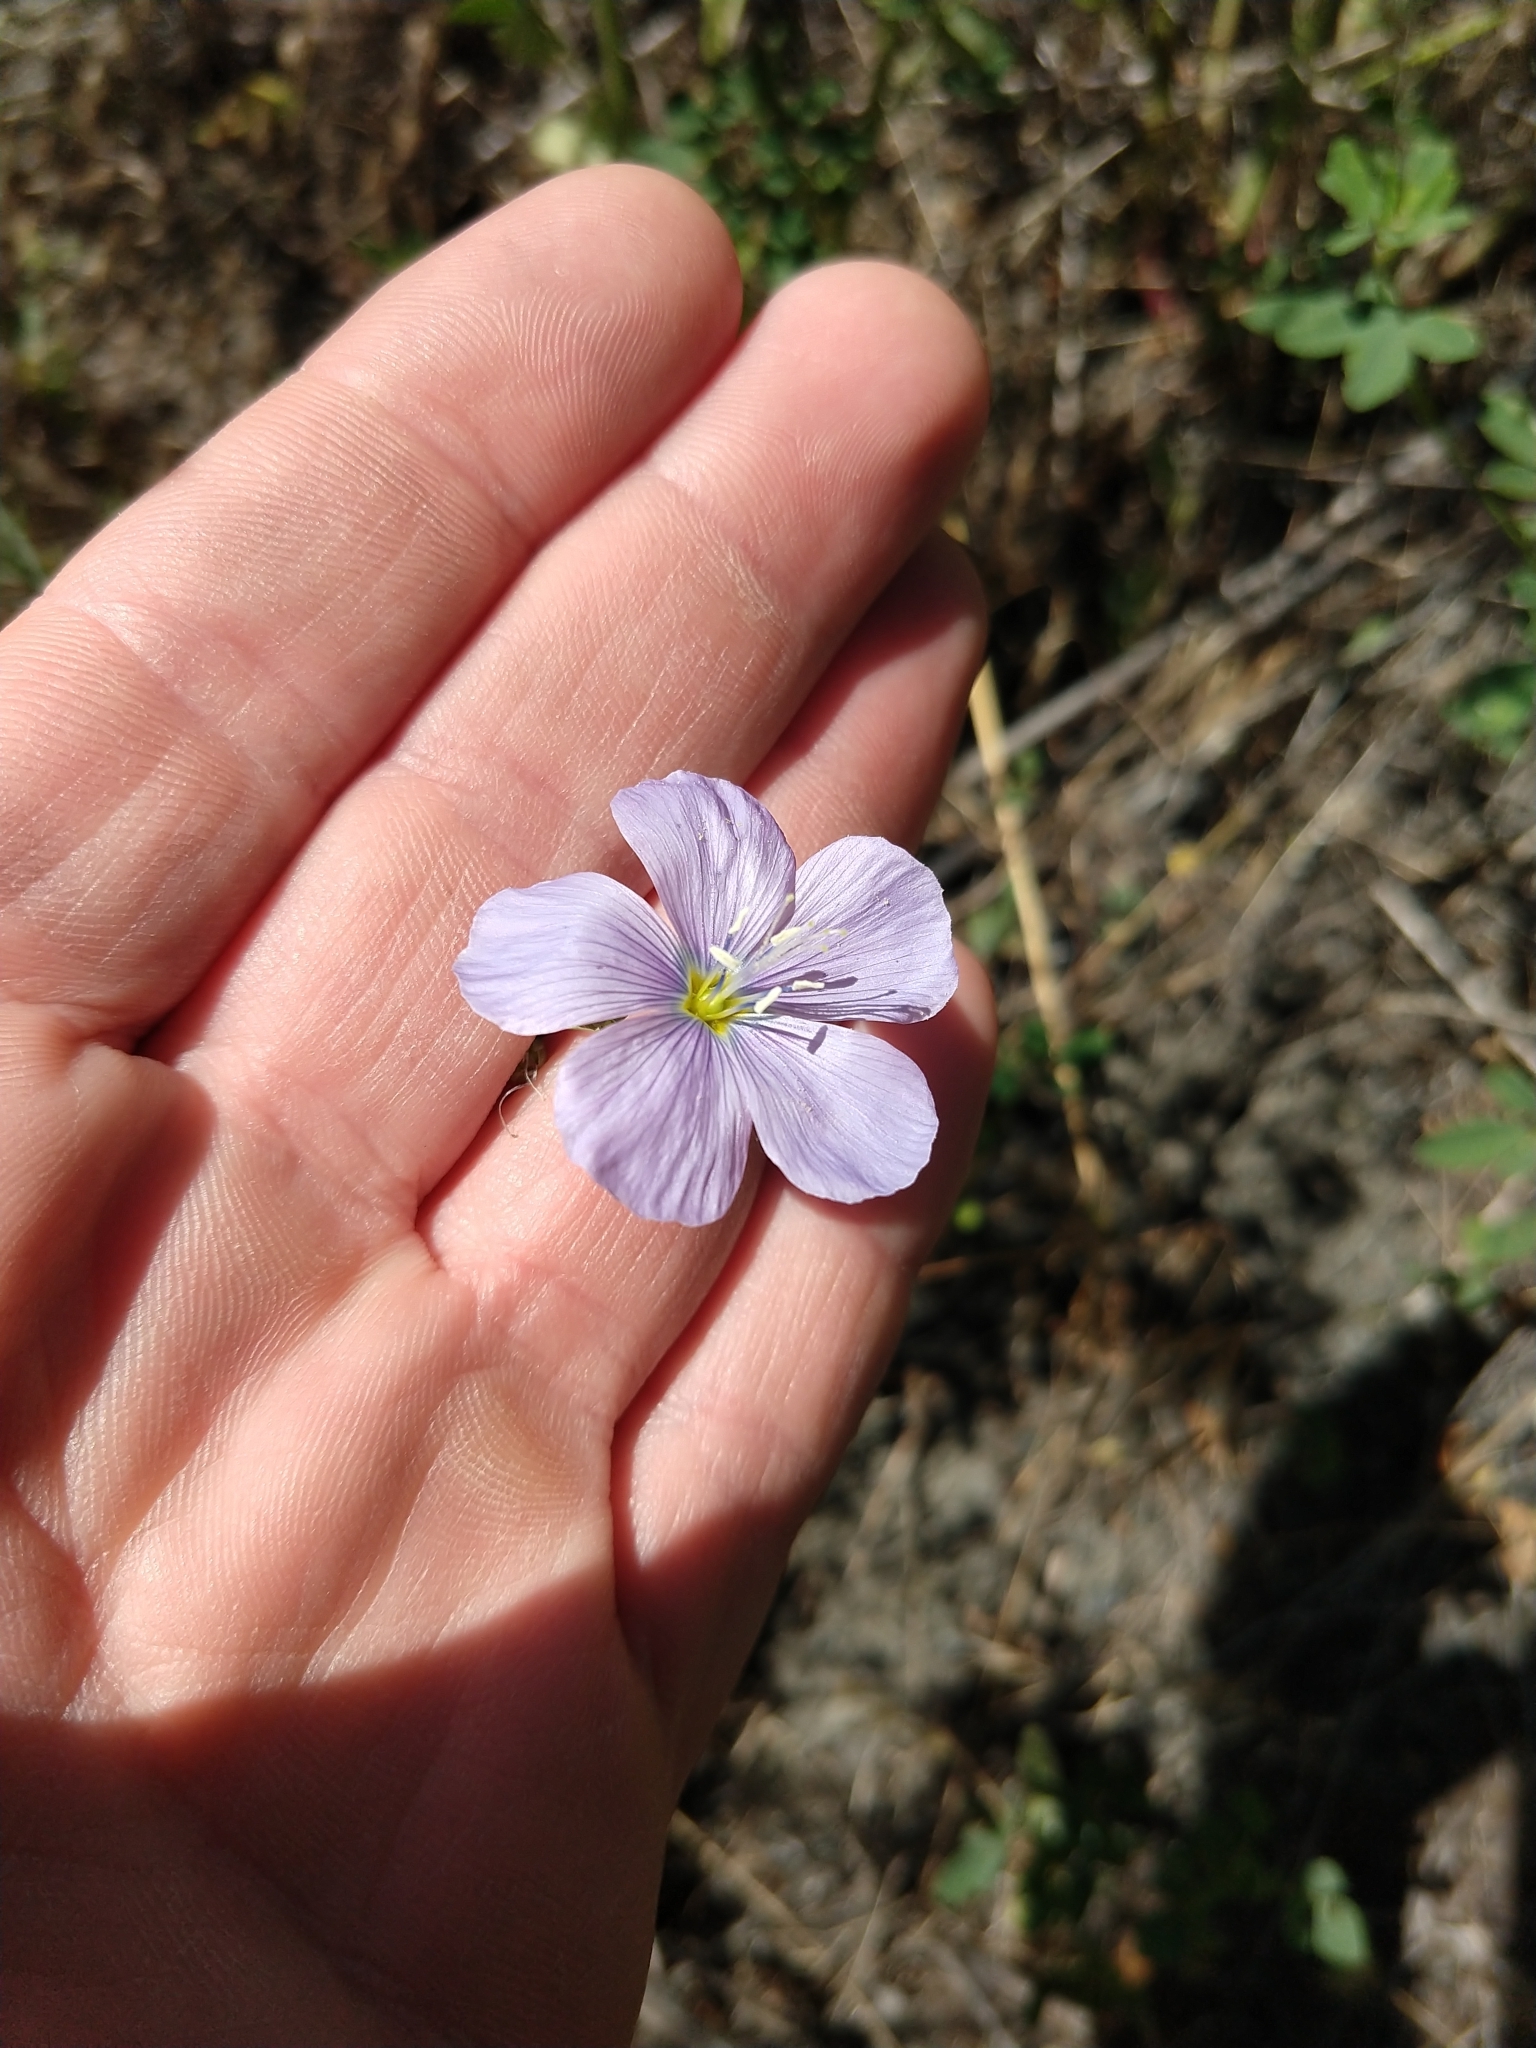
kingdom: Plantae
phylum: Tracheophyta
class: Magnoliopsida
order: Malpighiales
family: Linaceae
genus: Linum
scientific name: Linum lewisii
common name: Prairie flax
